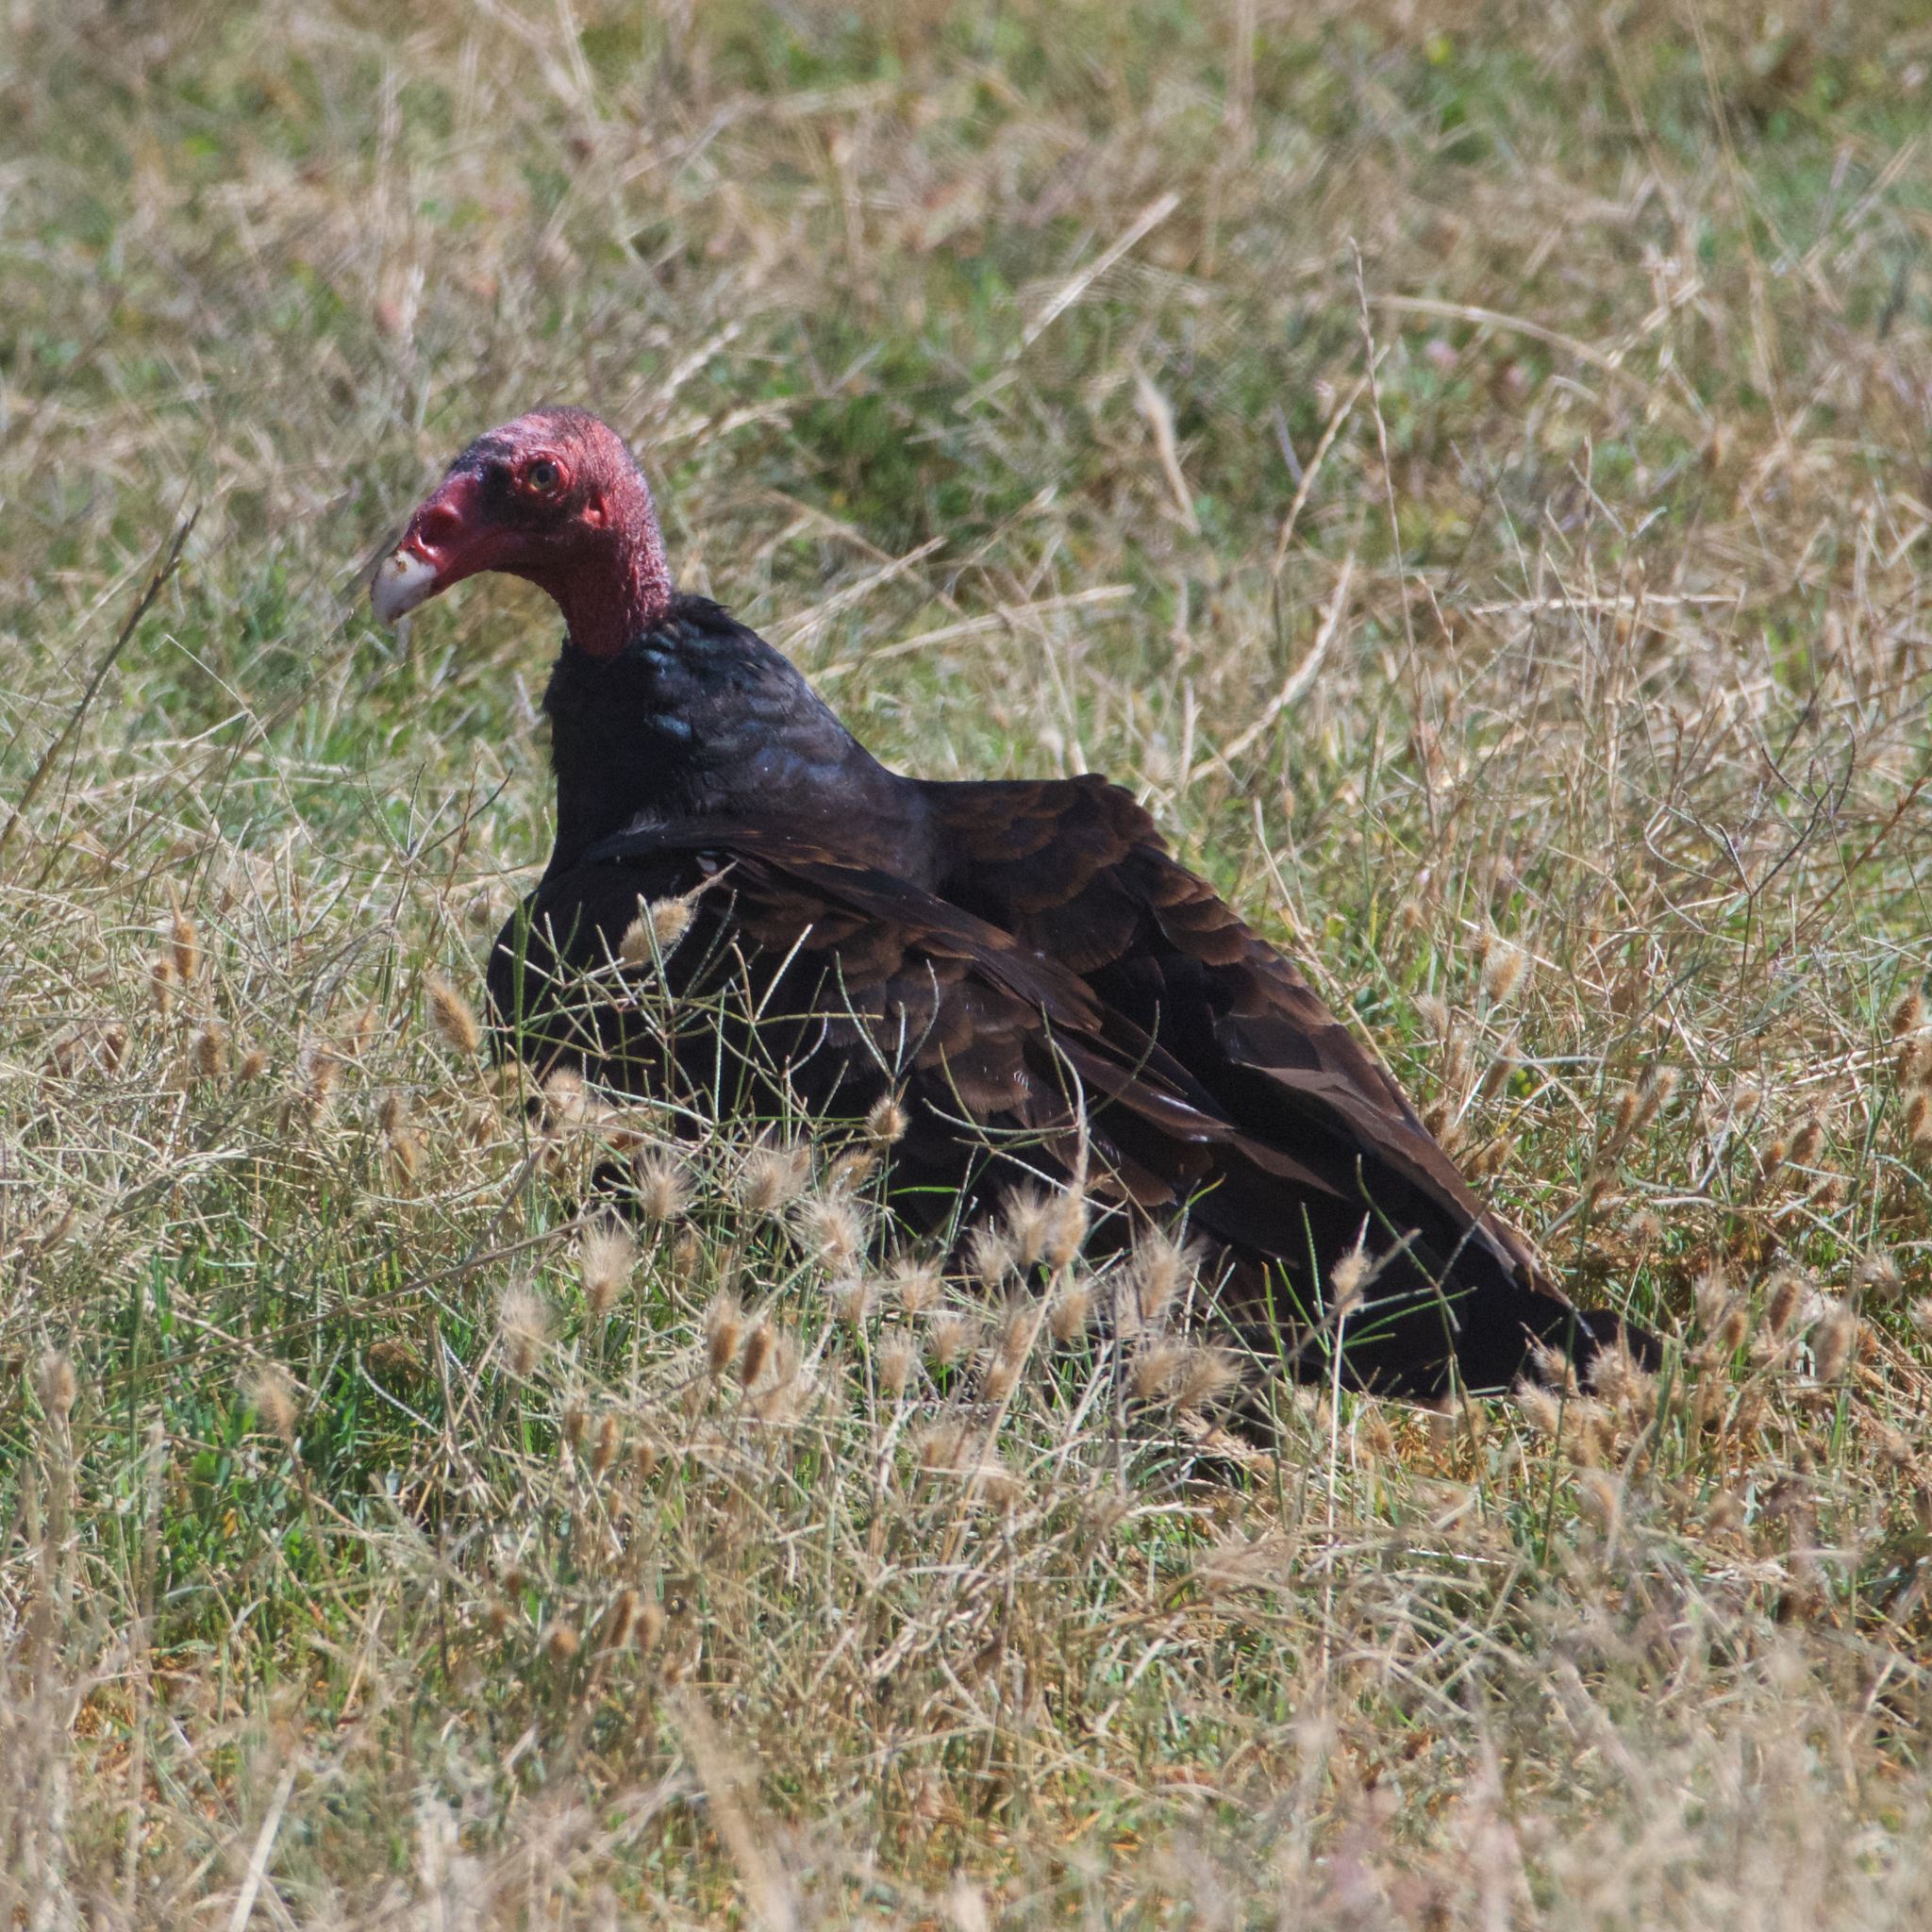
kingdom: Animalia
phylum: Chordata
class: Aves
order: Accipitriformes
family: Cathartidae
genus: Cathartes
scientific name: Cathartes aura
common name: Turkey vulture
